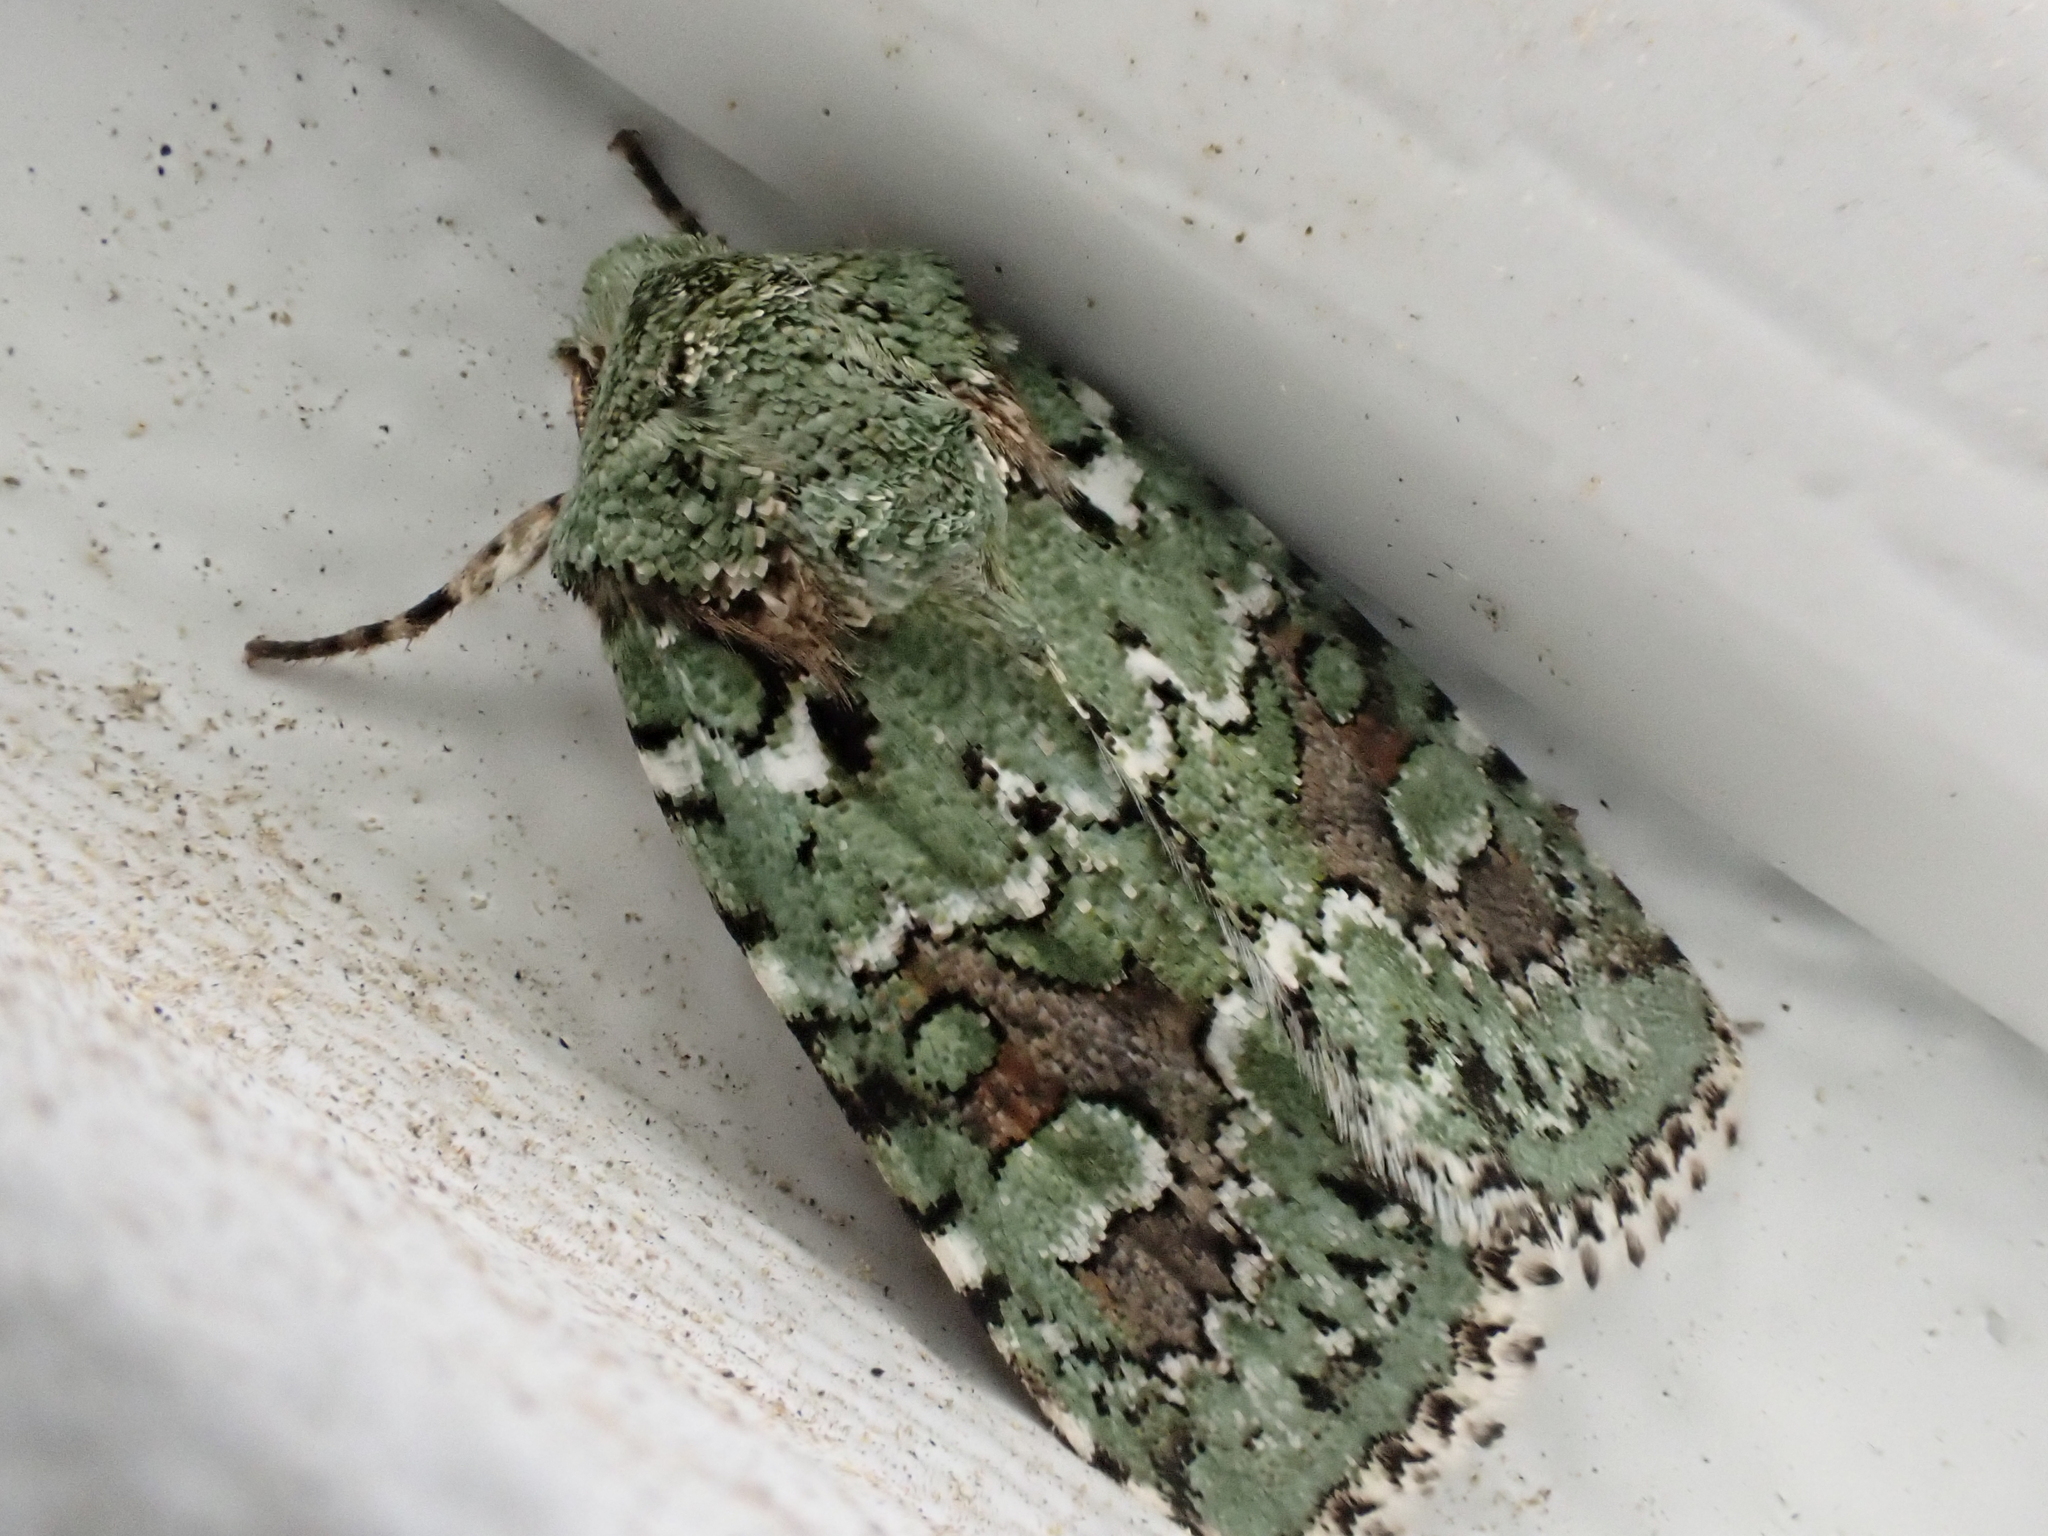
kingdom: Animalia
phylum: Arthropoda
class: Insecta
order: Lepidoptera
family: Noctuidae
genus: Lacinipolia
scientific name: Lacinipolia laudabilis
